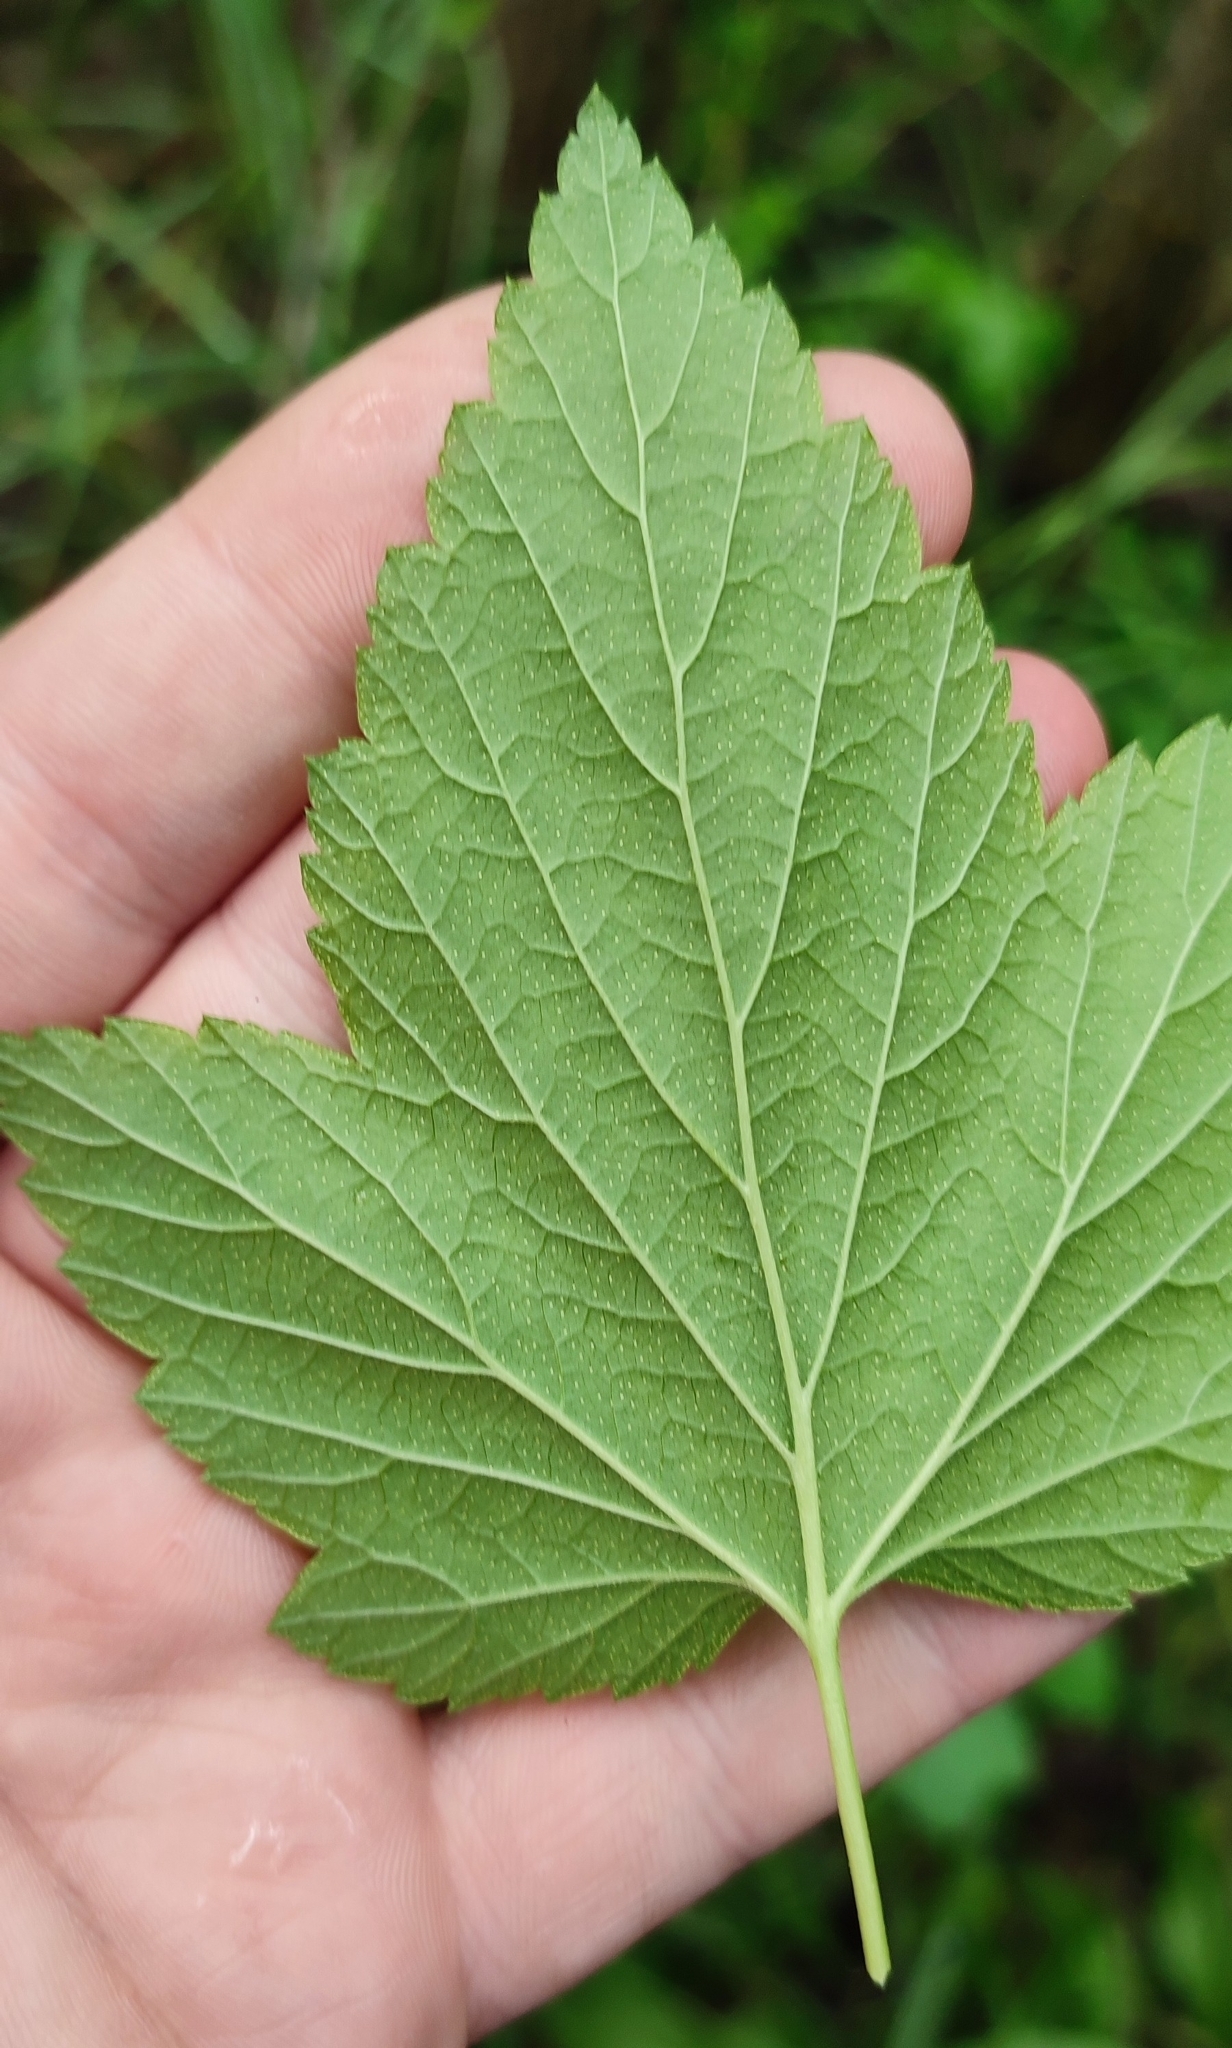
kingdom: Plantae
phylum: Tracheophyta
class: Magnoliopsida
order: Saxifragales
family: Grossulariaceae
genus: Ribes
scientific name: Ribes nigrum
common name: Black currant
